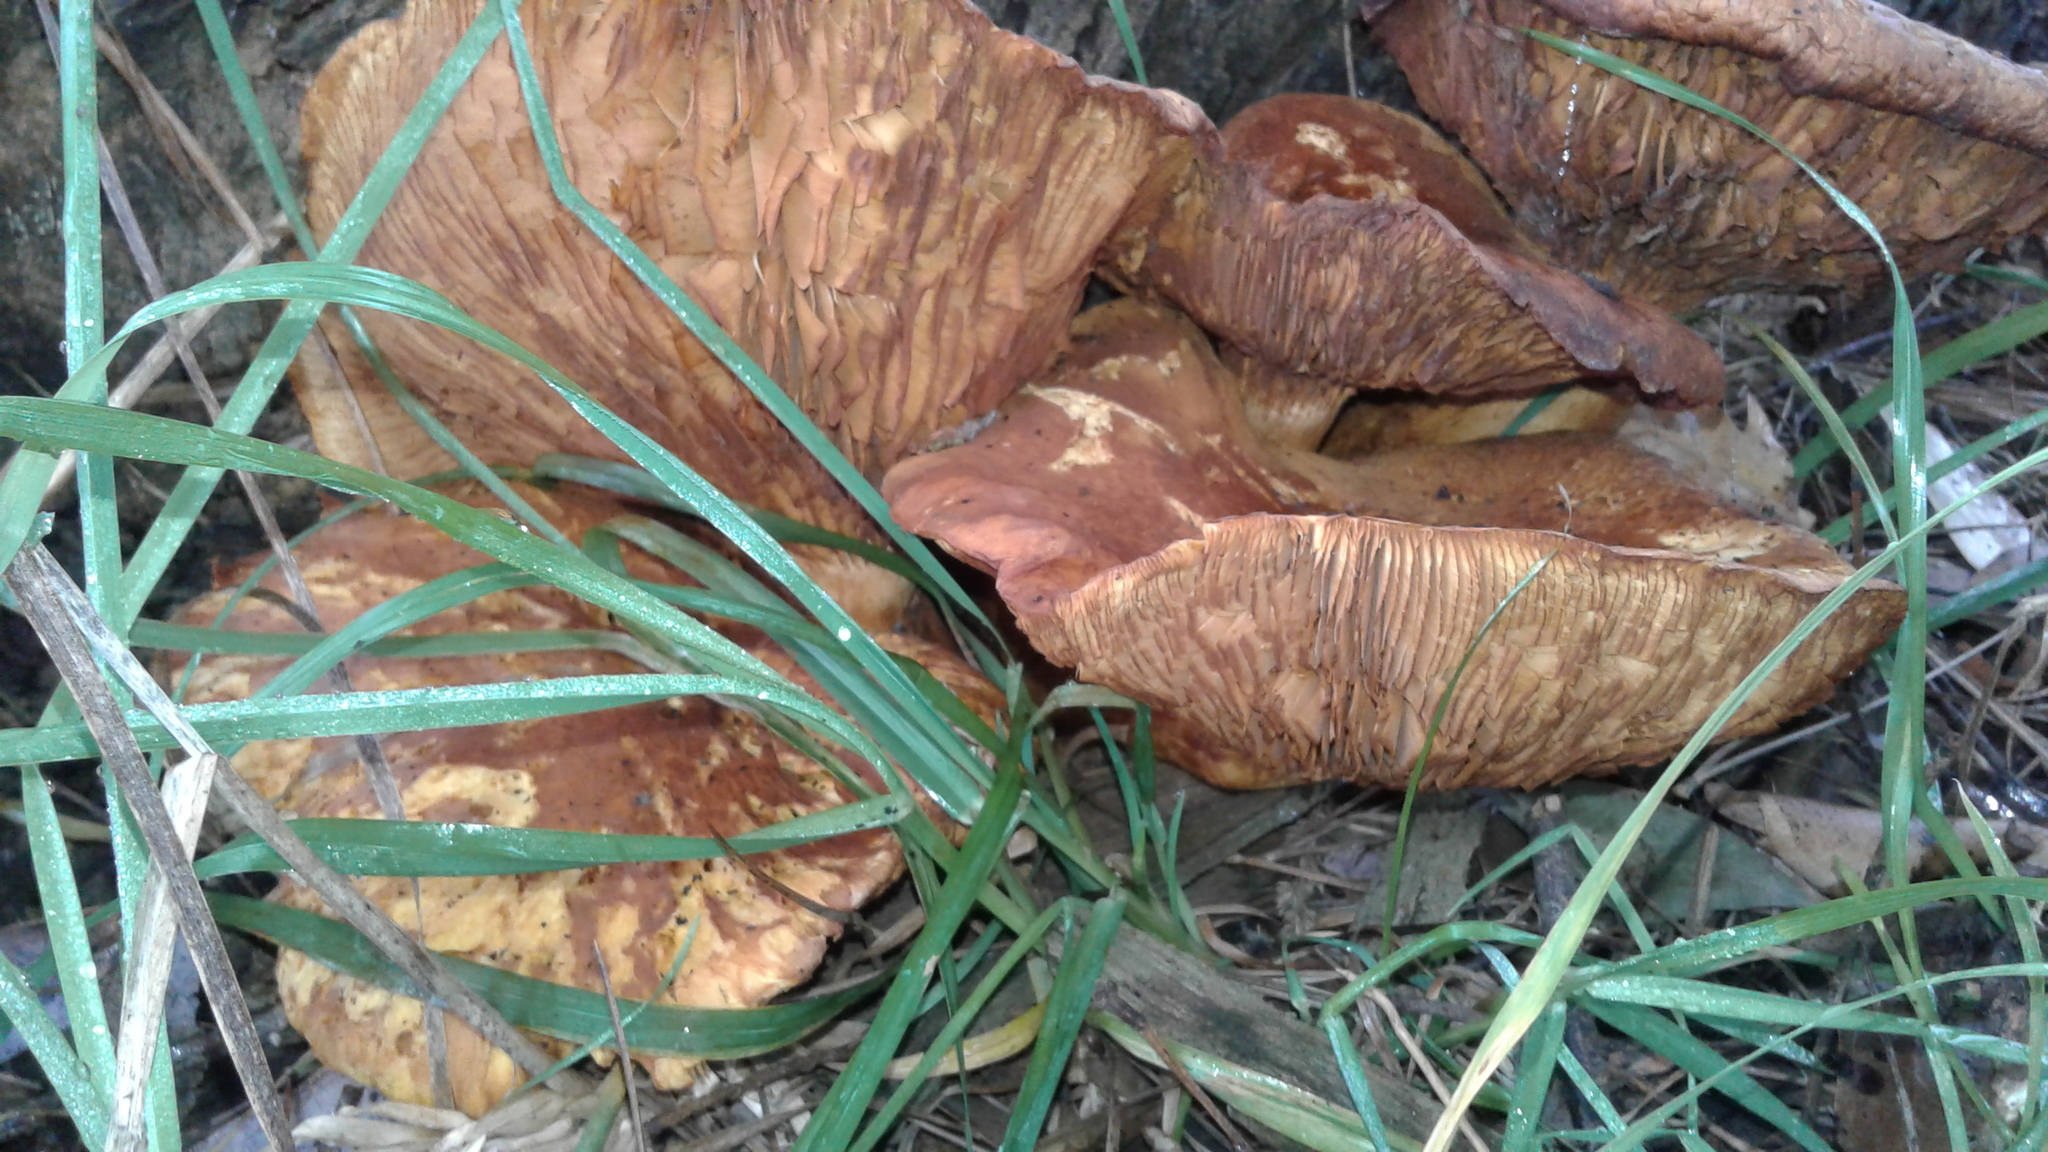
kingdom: Fungi
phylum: Basidiomycota
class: Agaricomycetes
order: Agaricales
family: Hymenogastraceae
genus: Gymnopilus
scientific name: Gymnopilus junonius
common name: Spectacular rustgill
